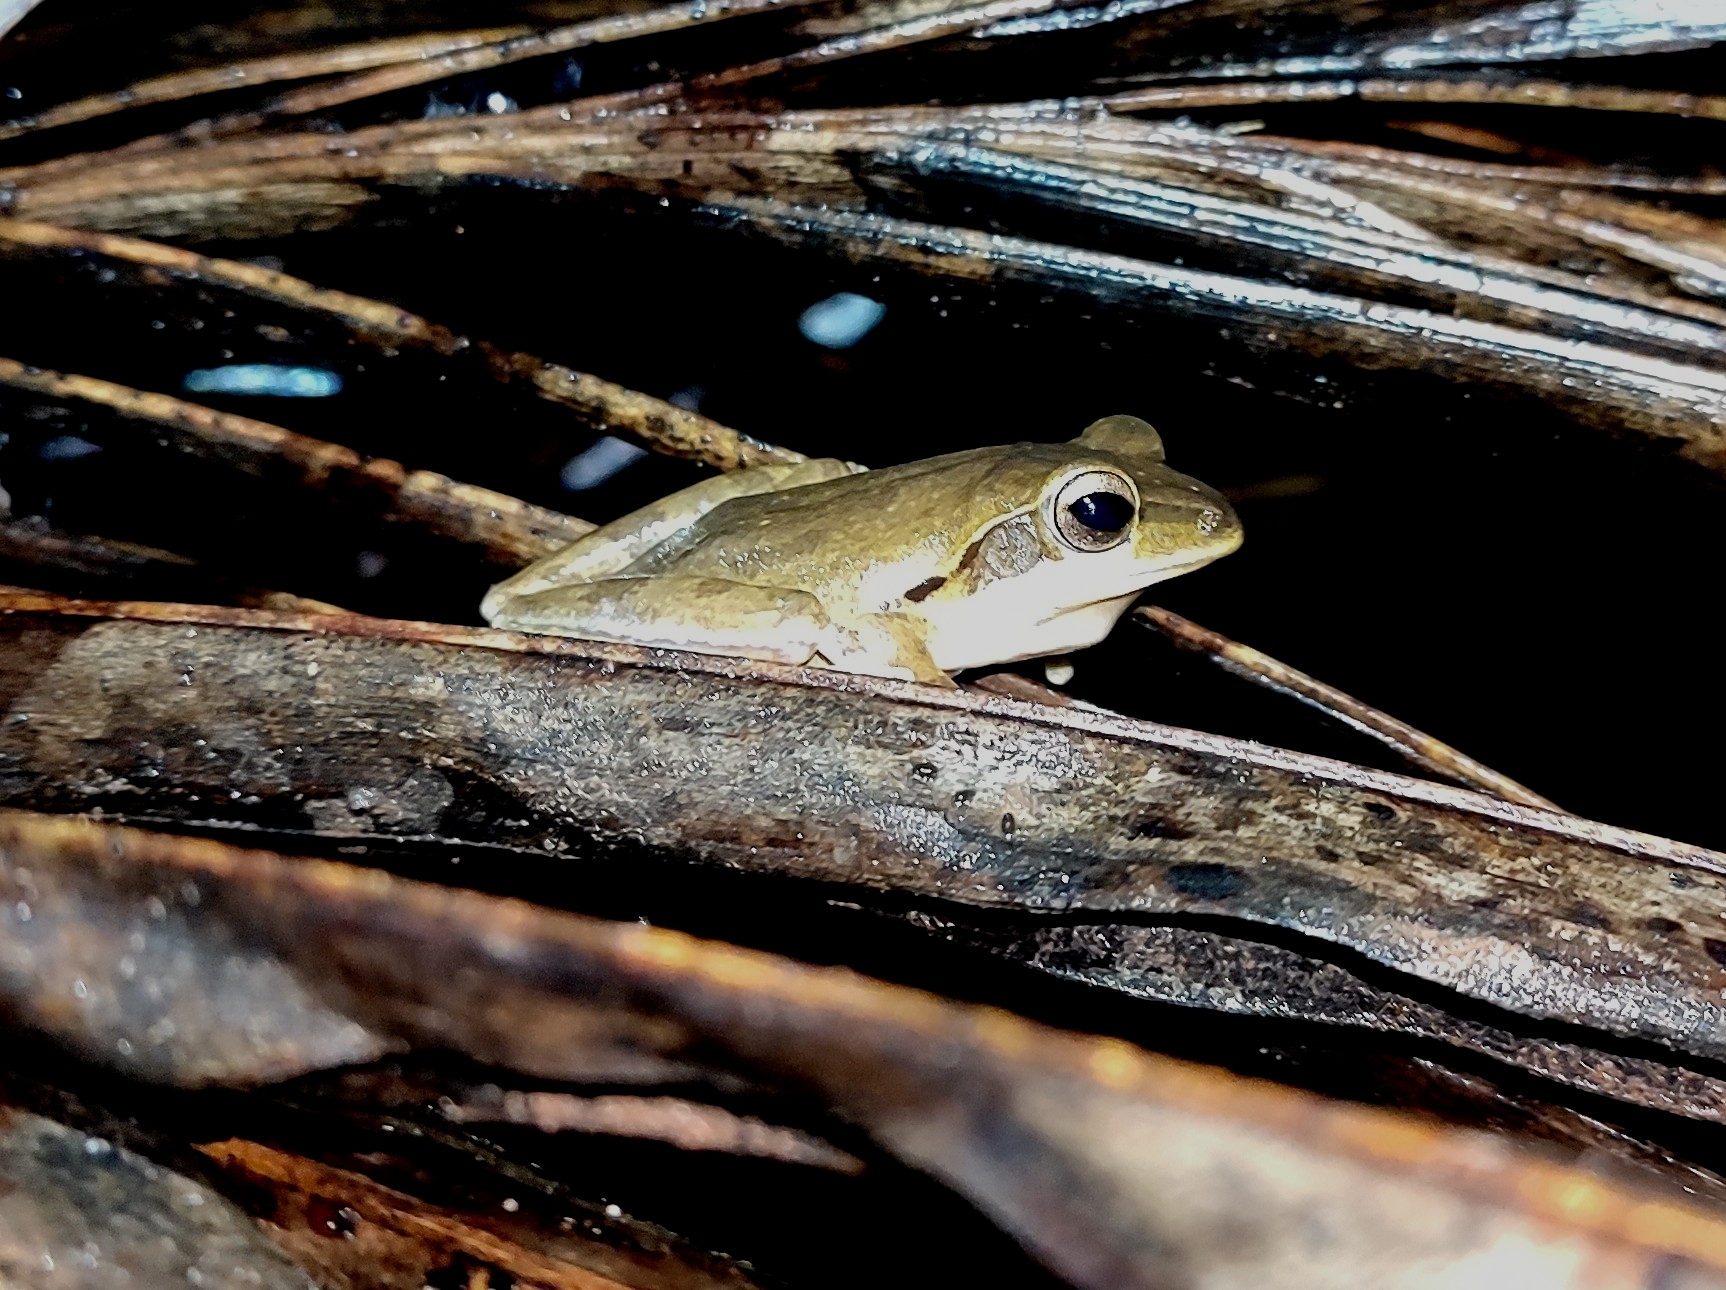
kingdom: Animalia
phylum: Chordata
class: Amphibia
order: Anura
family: Rhacophoridae
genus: Polypedates
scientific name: Polypedates maculatus
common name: Himalayan tree frog
